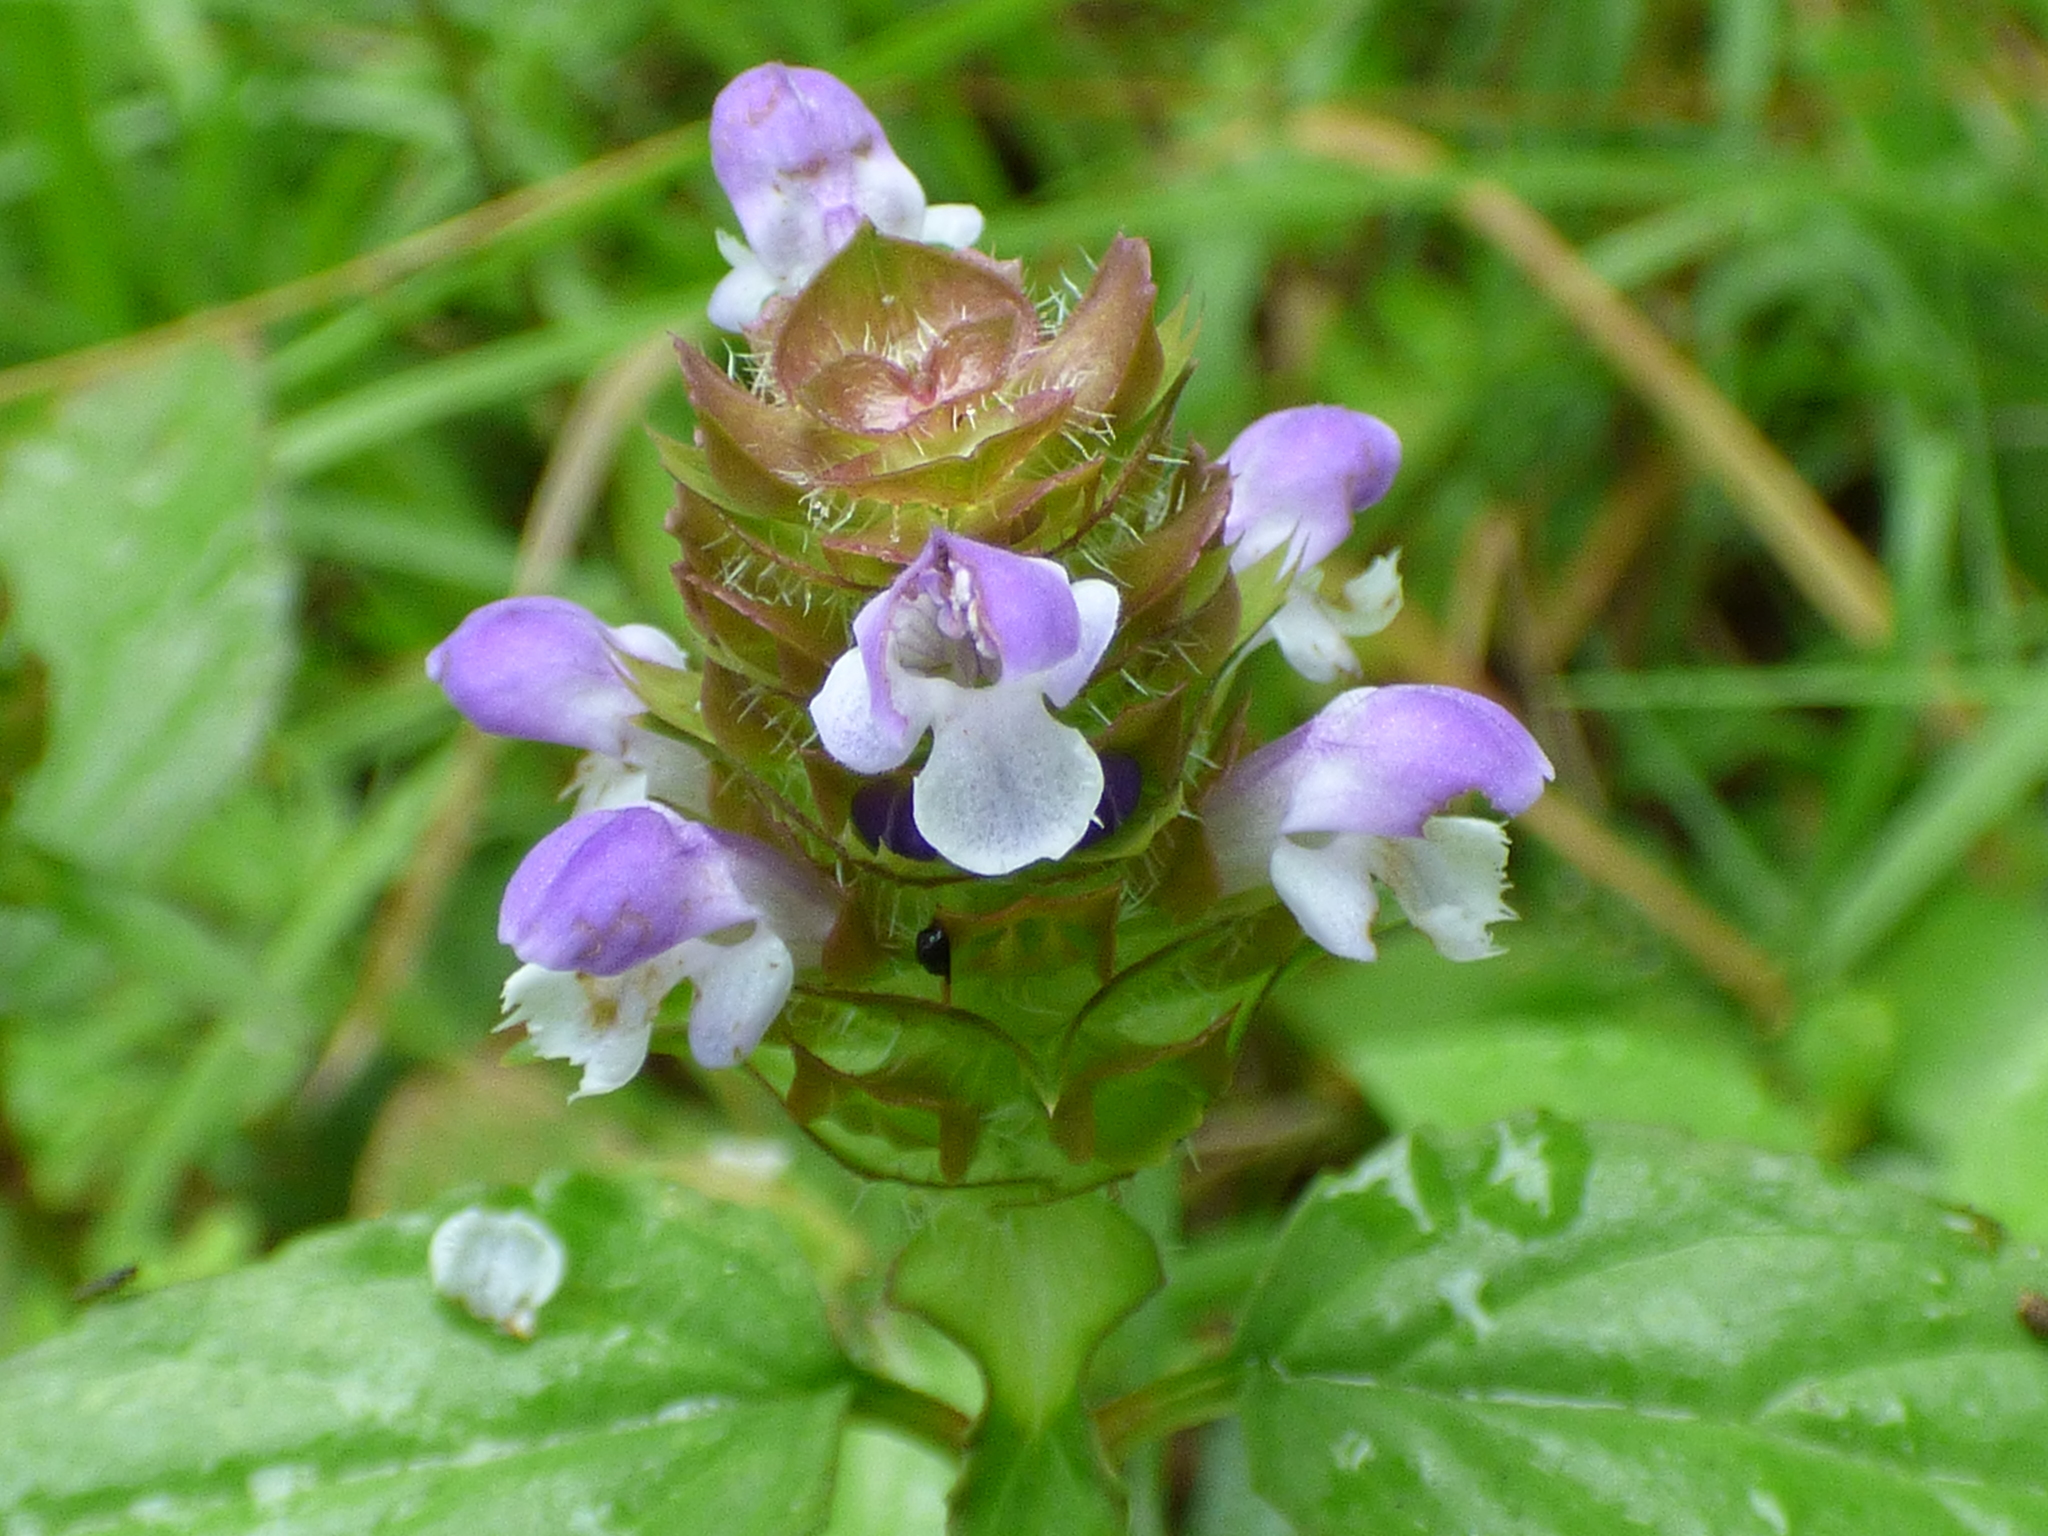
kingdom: Plantae
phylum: Tracheophyta
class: Magnoliopsida
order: Lamiales
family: Lamiaceae
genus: Prunella
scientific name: Prunella vulgaris
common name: Heal-all
